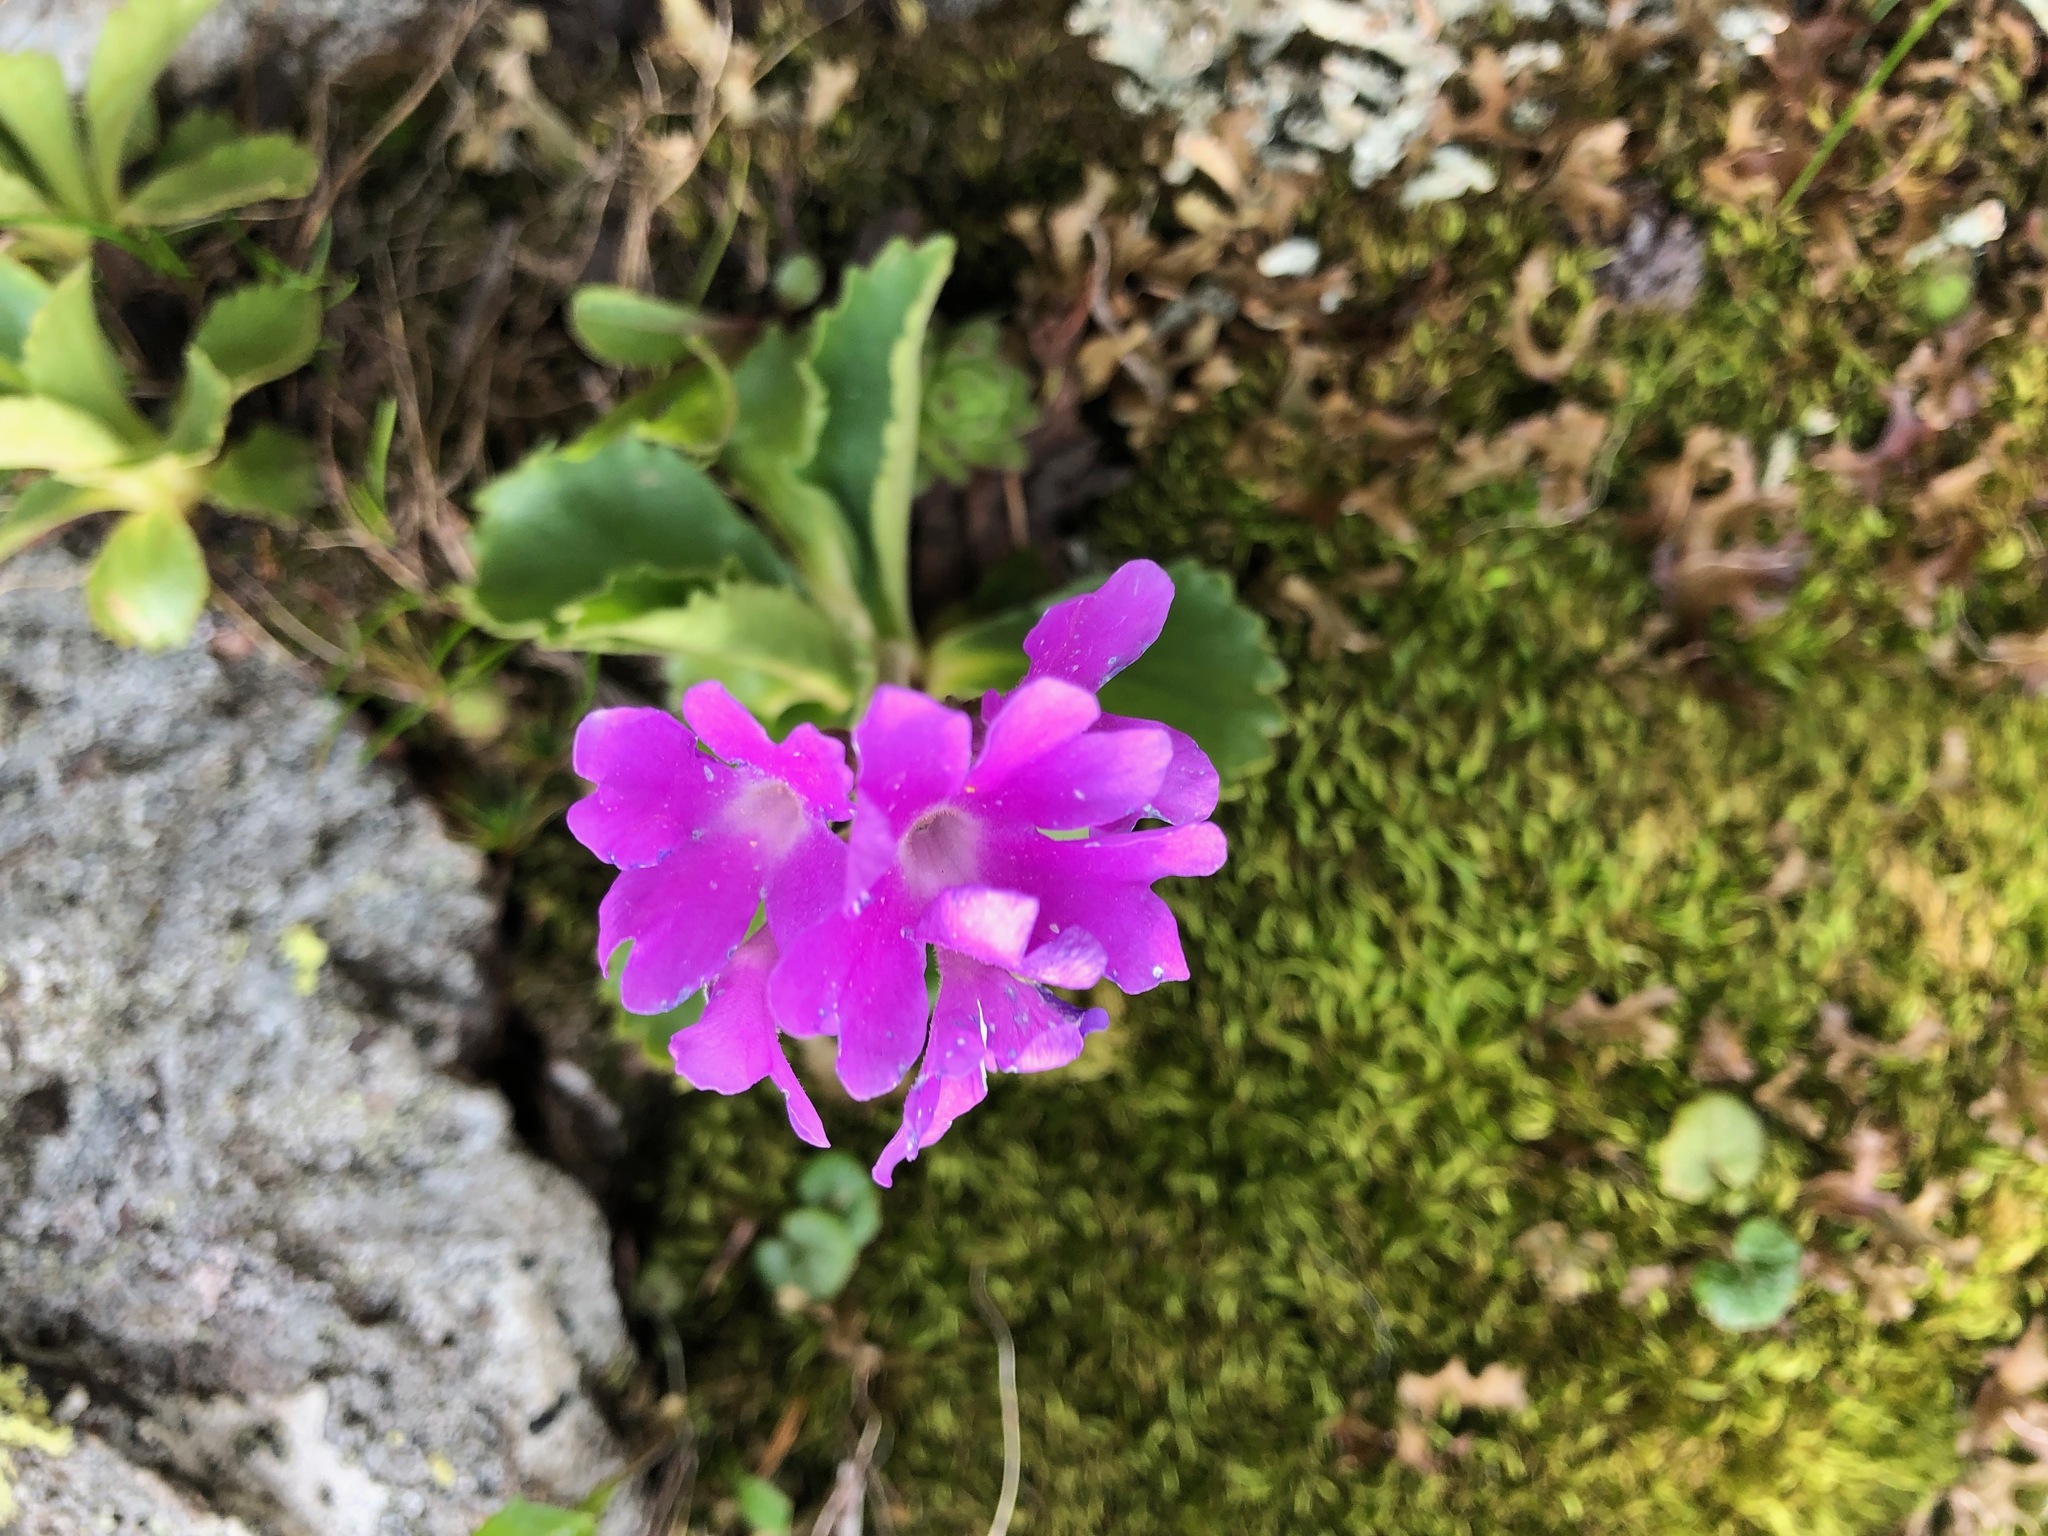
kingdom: Plantae
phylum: Tracheophyta
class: Magnoliopsida
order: Ericales
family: Primulaceae
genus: Primula
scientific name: Primula hirsuta
